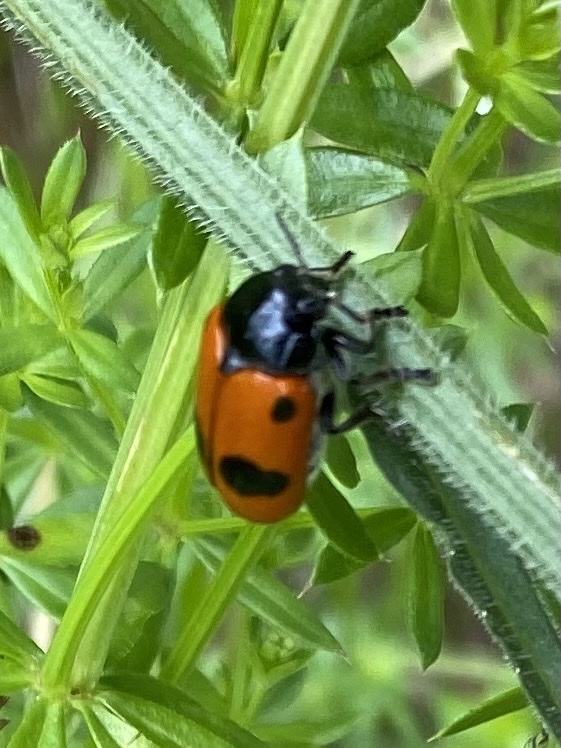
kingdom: Animalia
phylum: Arthropoda
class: Insecta
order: Coleoptera
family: Chrysomelidae
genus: Clytra
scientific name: Clytra laeviuscula
